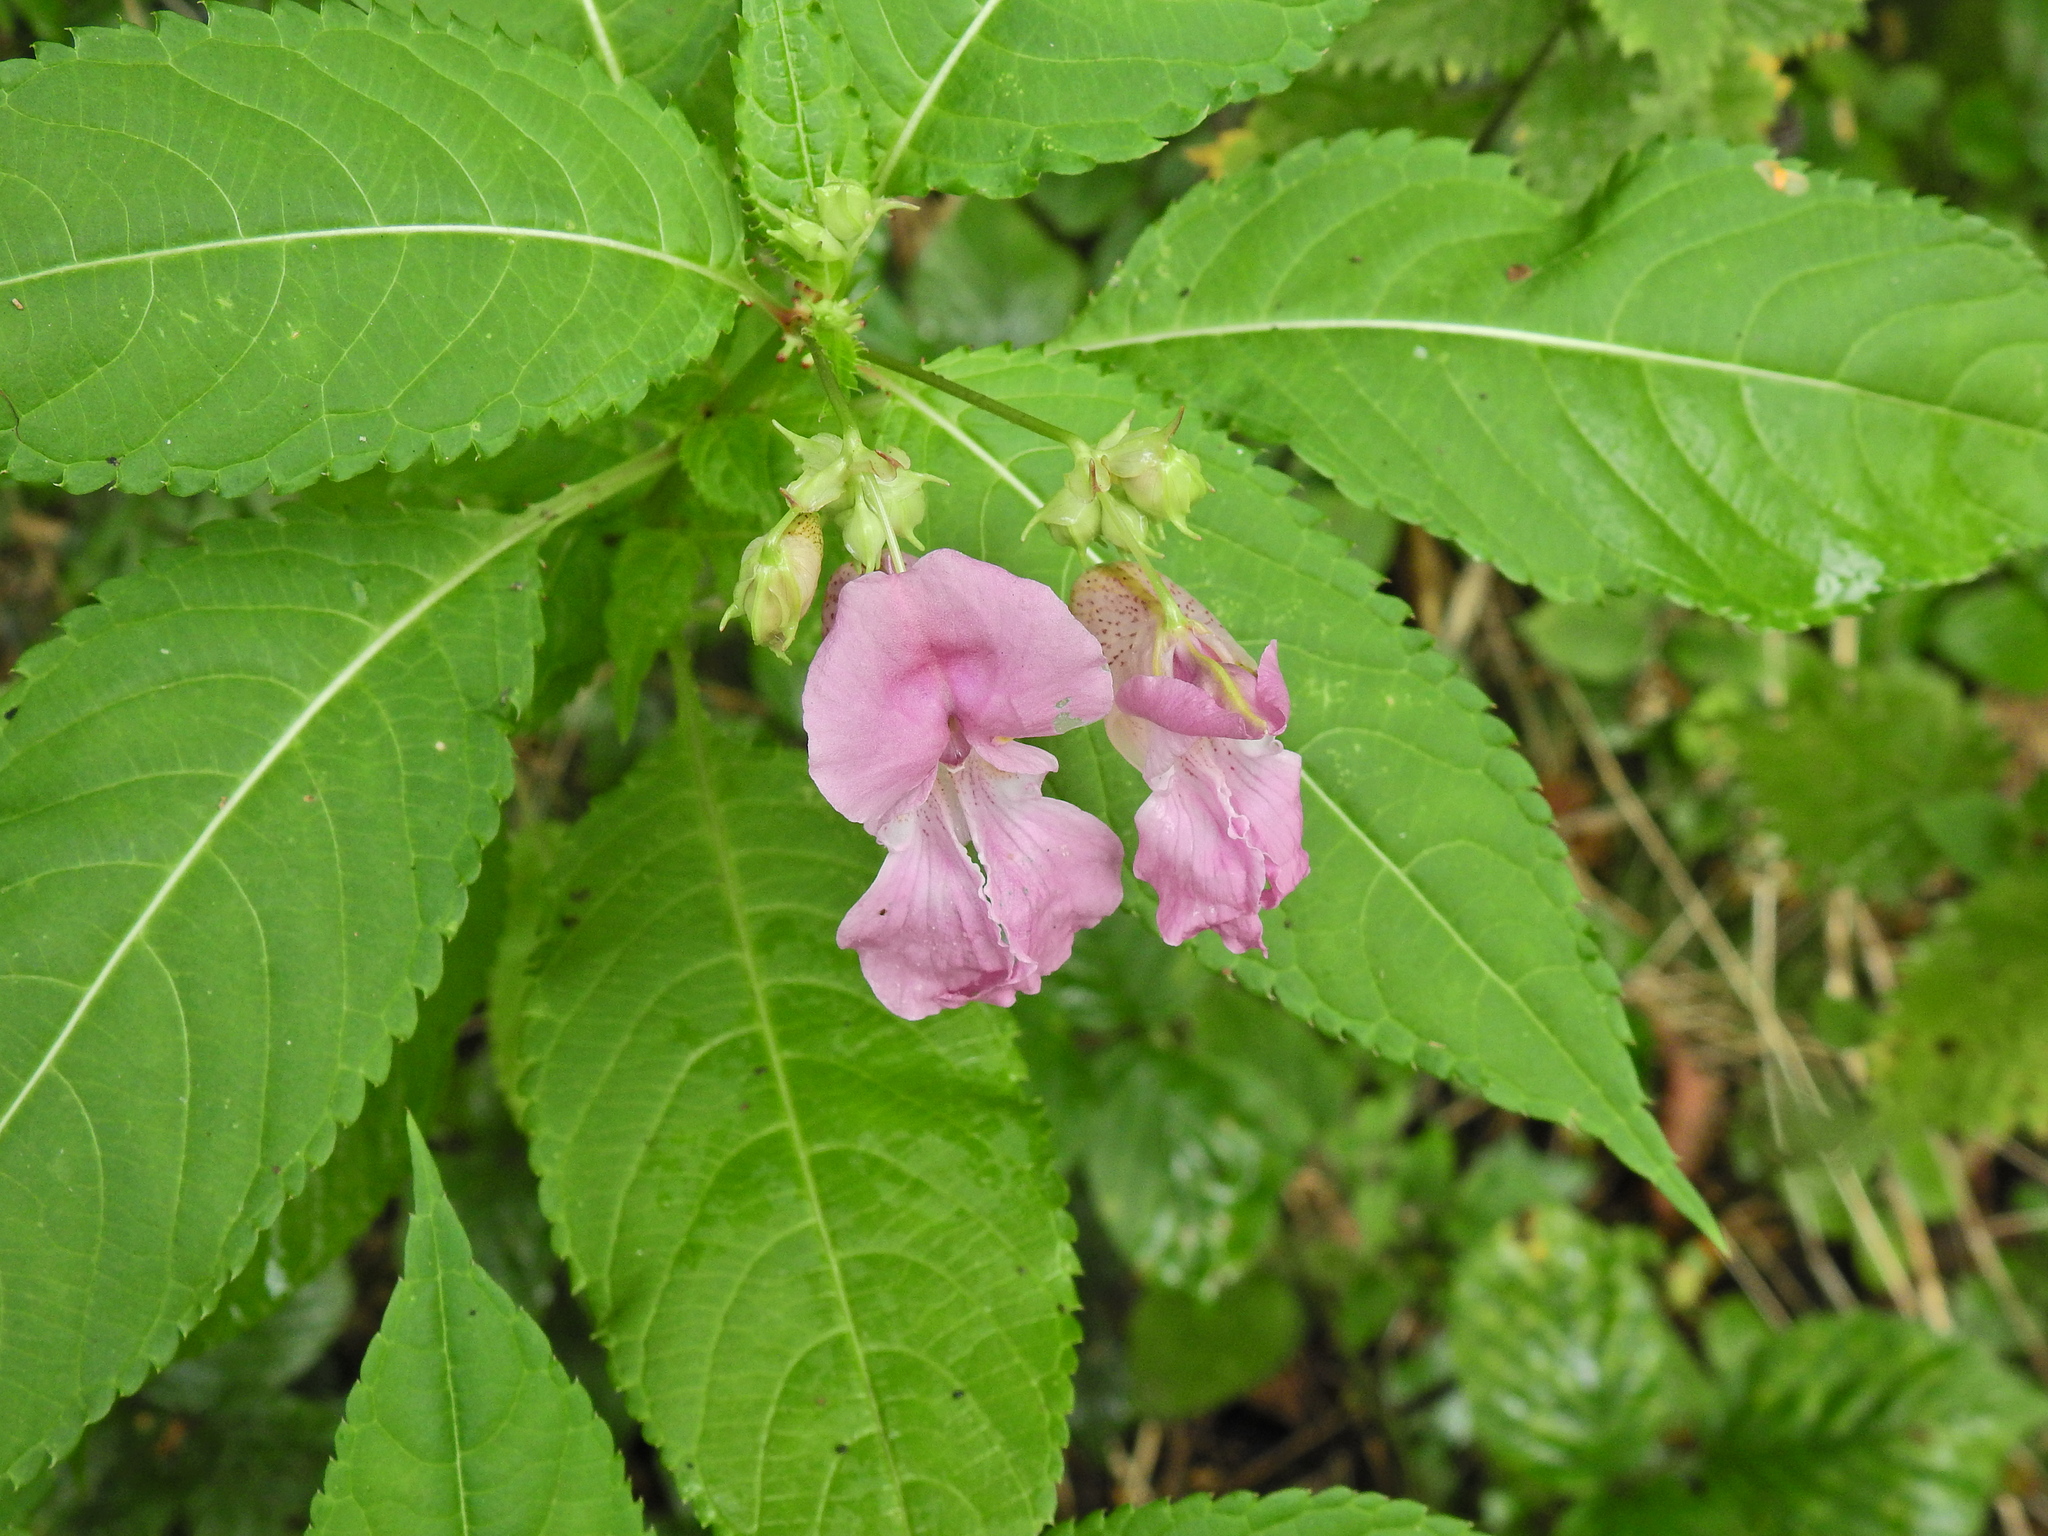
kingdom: Plantae
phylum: Tracheophyta
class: Magnoliopsida
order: Ericales
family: Balsaminaceae
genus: Impatiens
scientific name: Impatiens glandulifera
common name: Himalayan balsam
